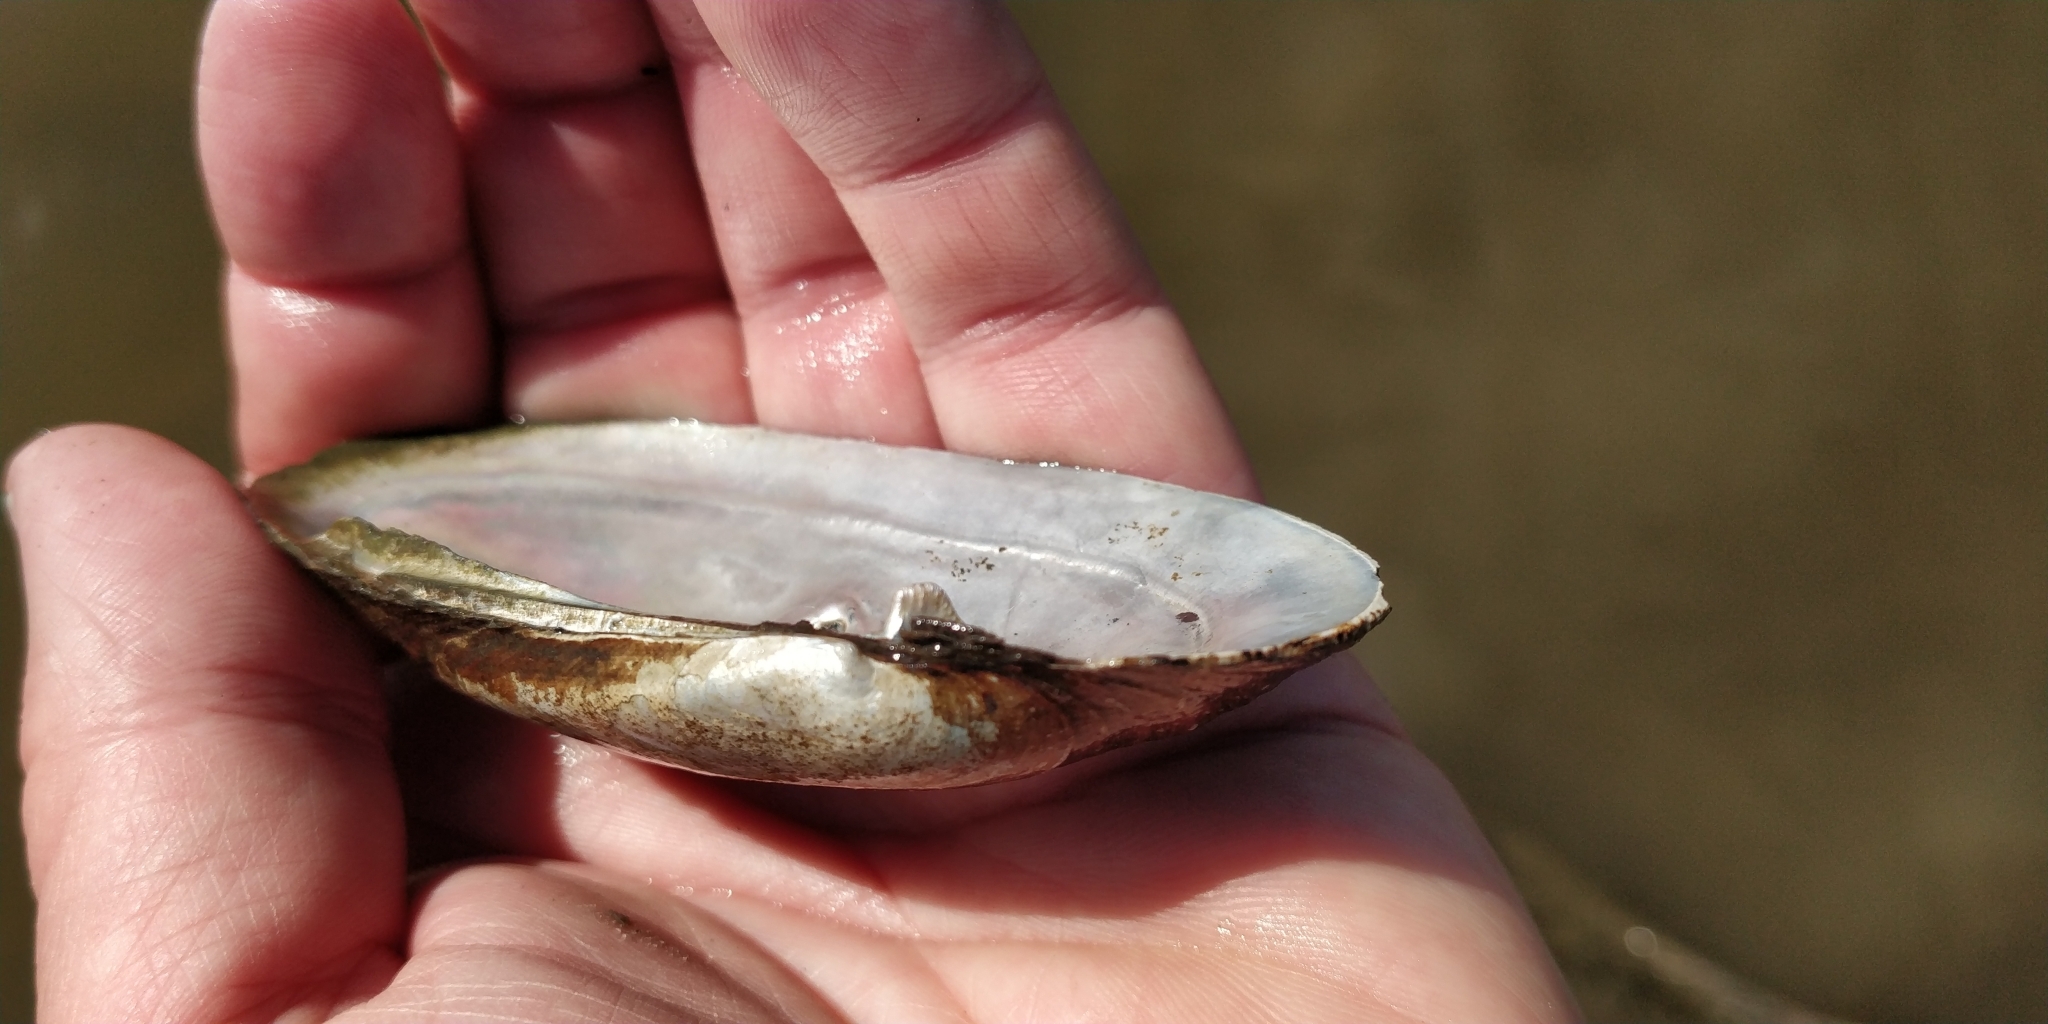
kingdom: Animalia
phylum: Mollusca
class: Bivalvia
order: Unionida
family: Unionidae
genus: Lampsilis
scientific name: Lampsilis teres
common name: Yellow sandshell
